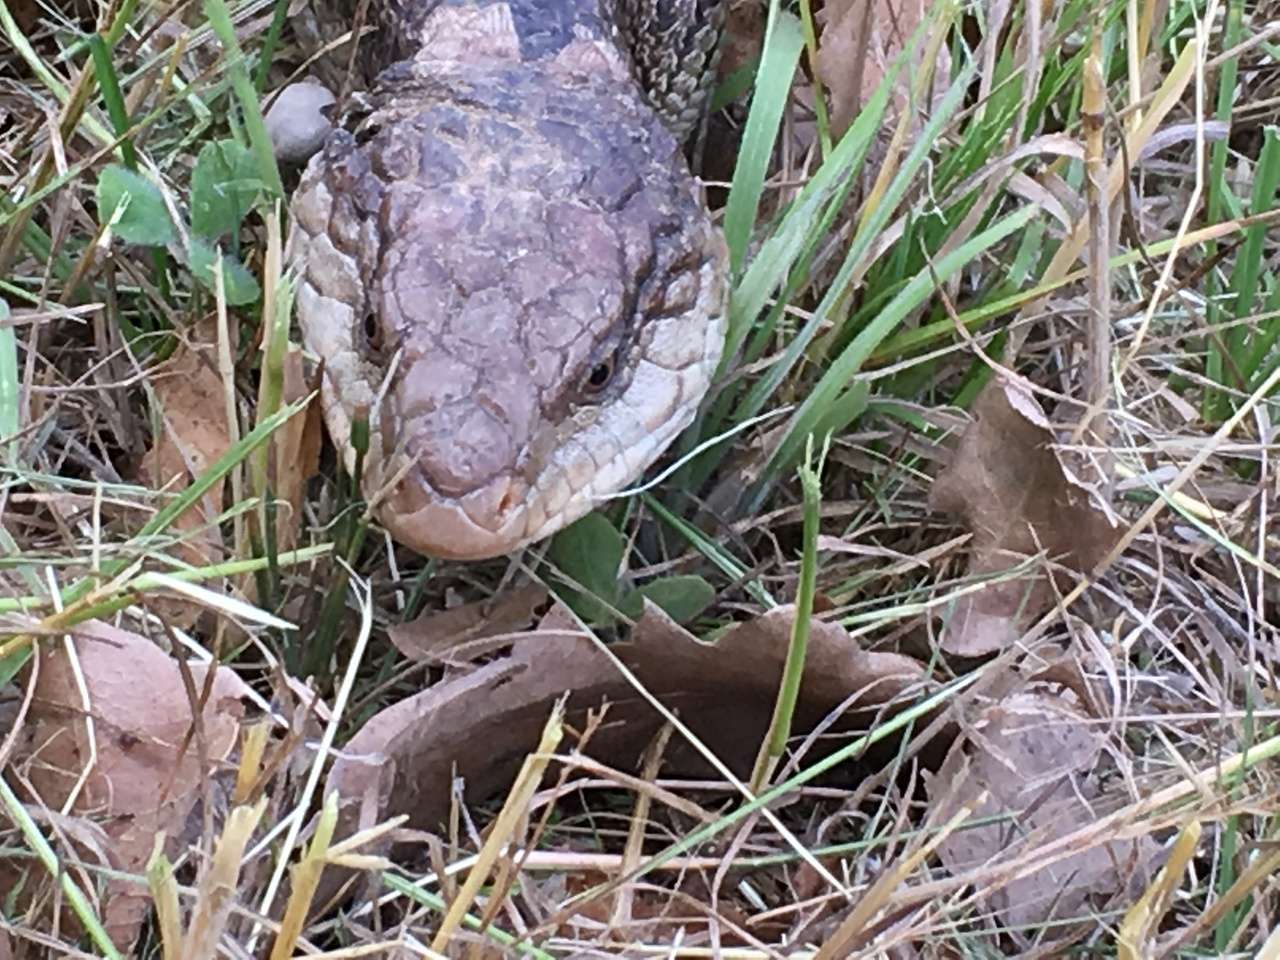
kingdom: Animalia
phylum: Chordata
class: Squamata
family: Scincidae
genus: Tiliqua
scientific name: Tiliqua nigrolutea
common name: Blotched blue-tongued lizard
